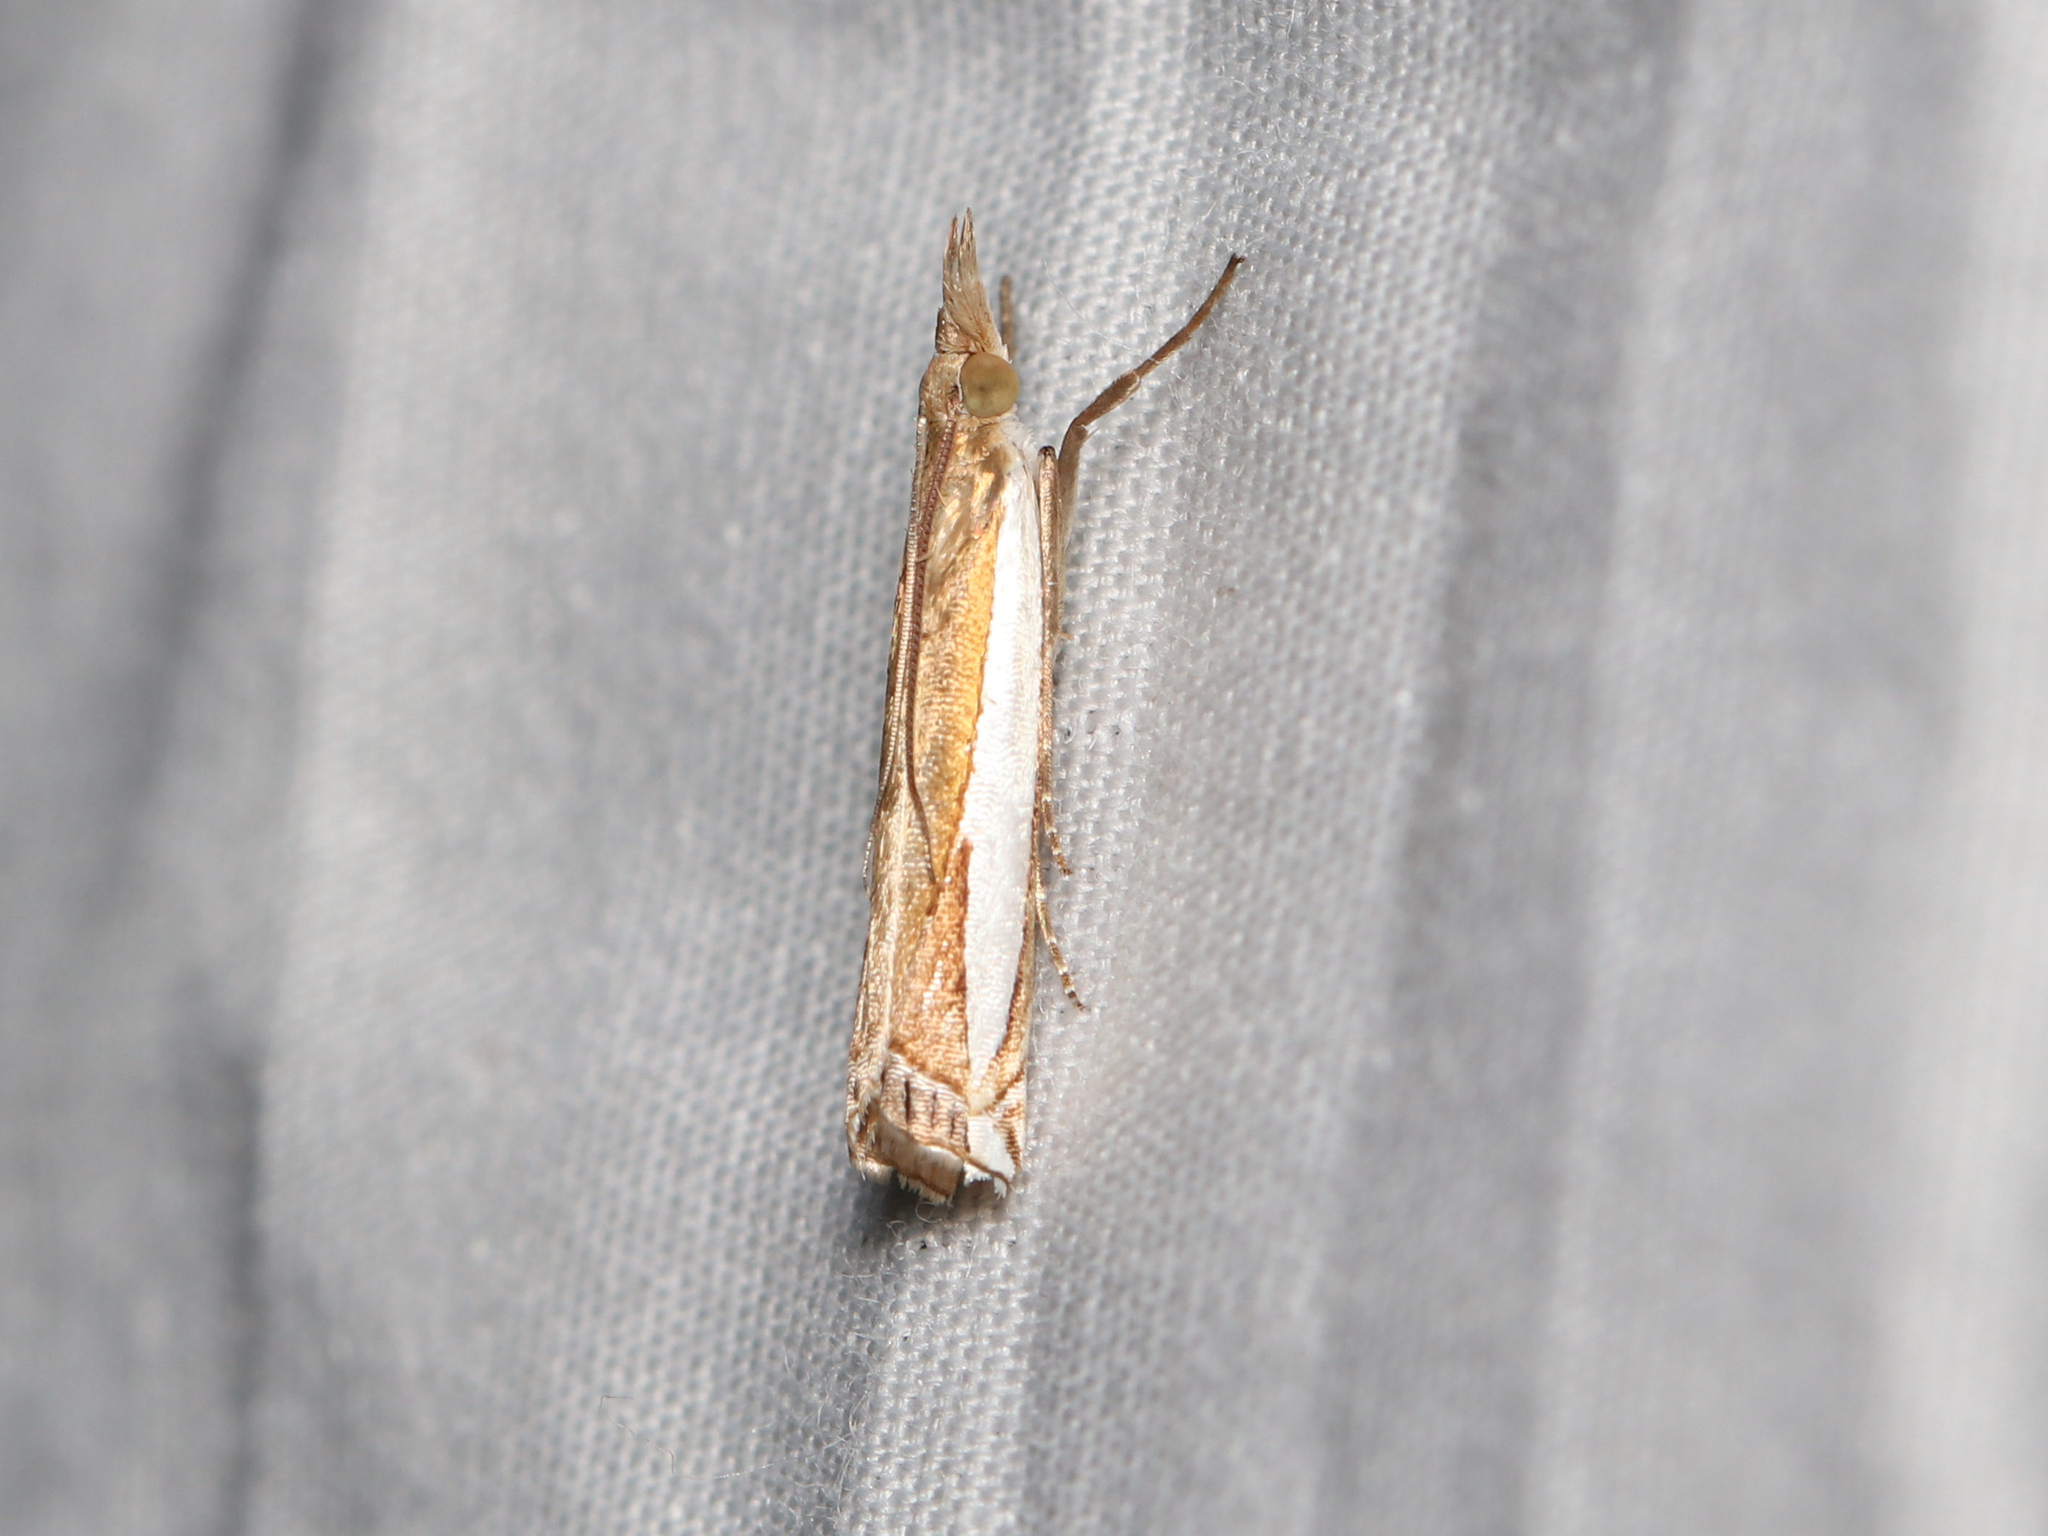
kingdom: Animalia
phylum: Arthropoda
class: Insecta
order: Lepidoptera
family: Crambidae
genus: Crambus
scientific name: Crambus quinquareatus
